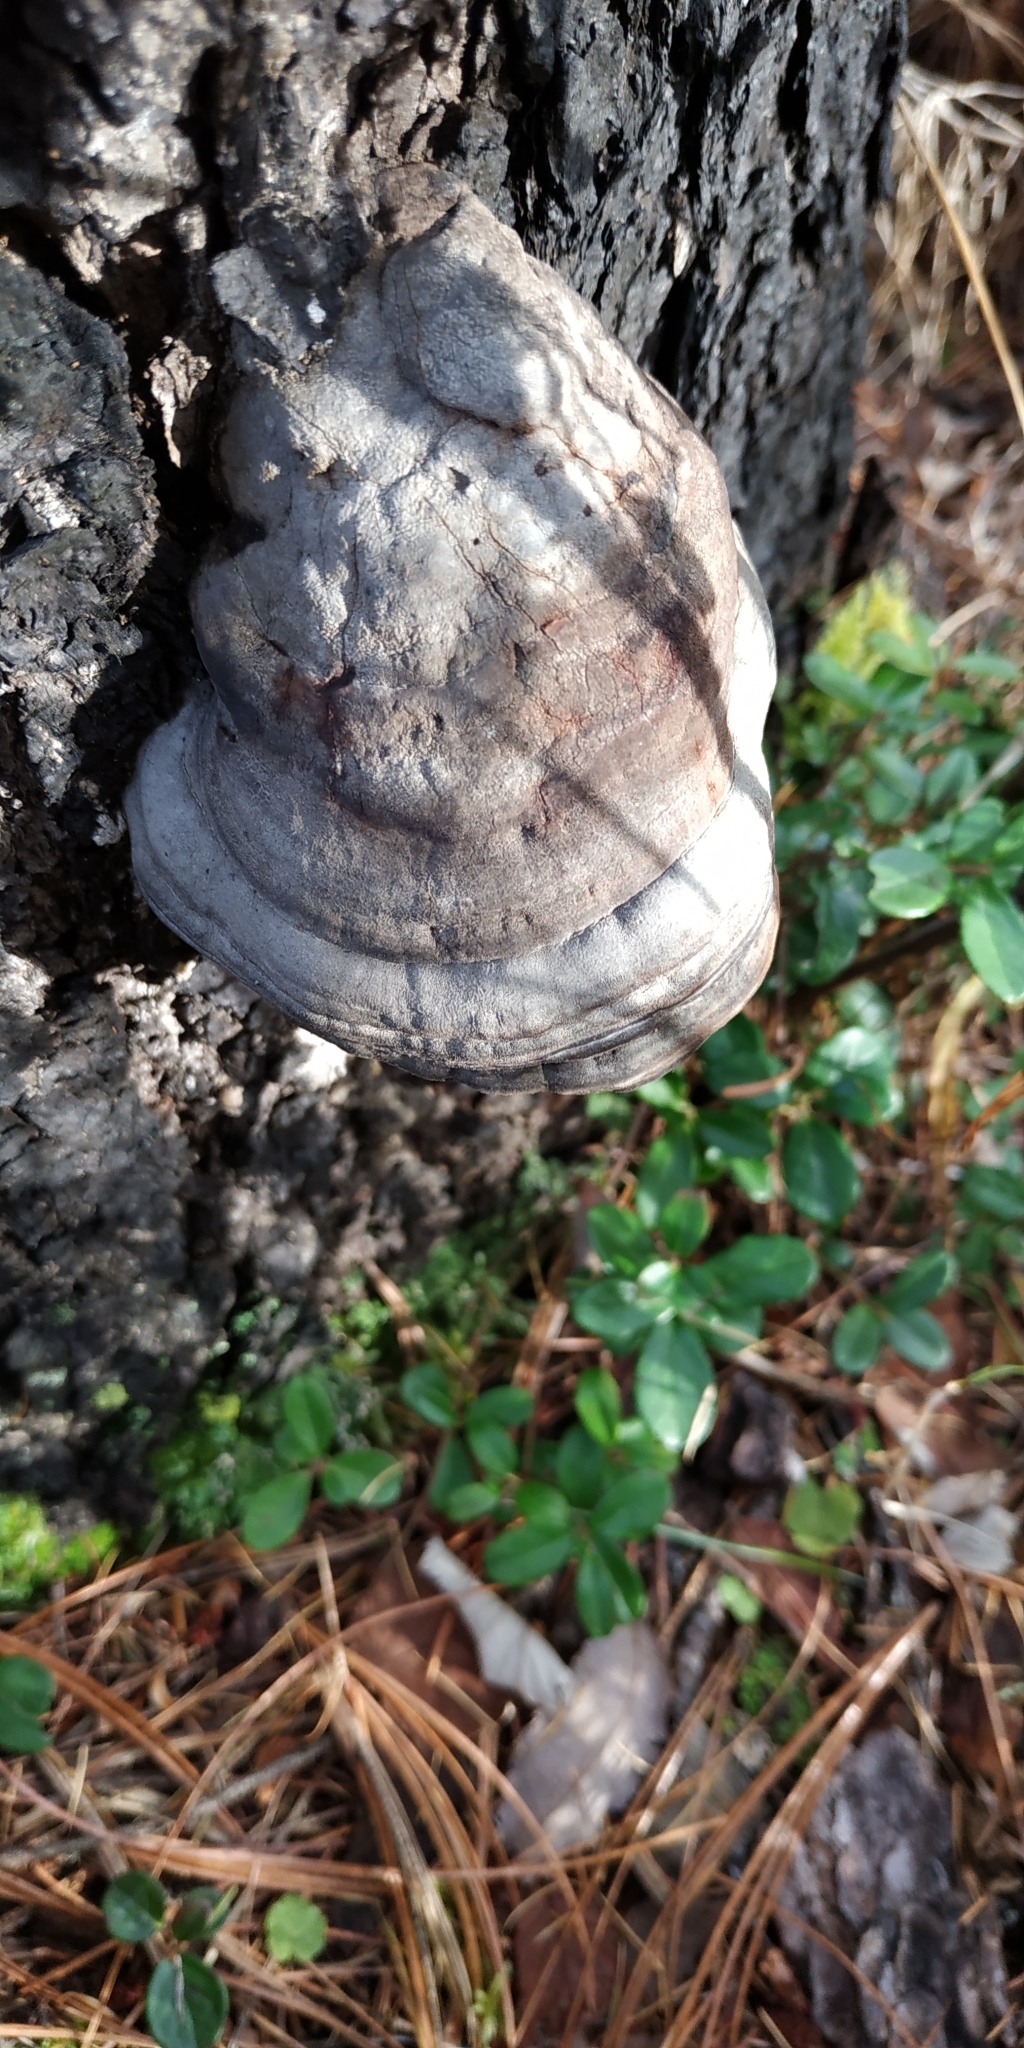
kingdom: Fungi
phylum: Basidiomycota
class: Agaricomycetes
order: Polyporales
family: Polyporaceae
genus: Fomes
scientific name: Fomes fomentarius
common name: Hoof fungus
